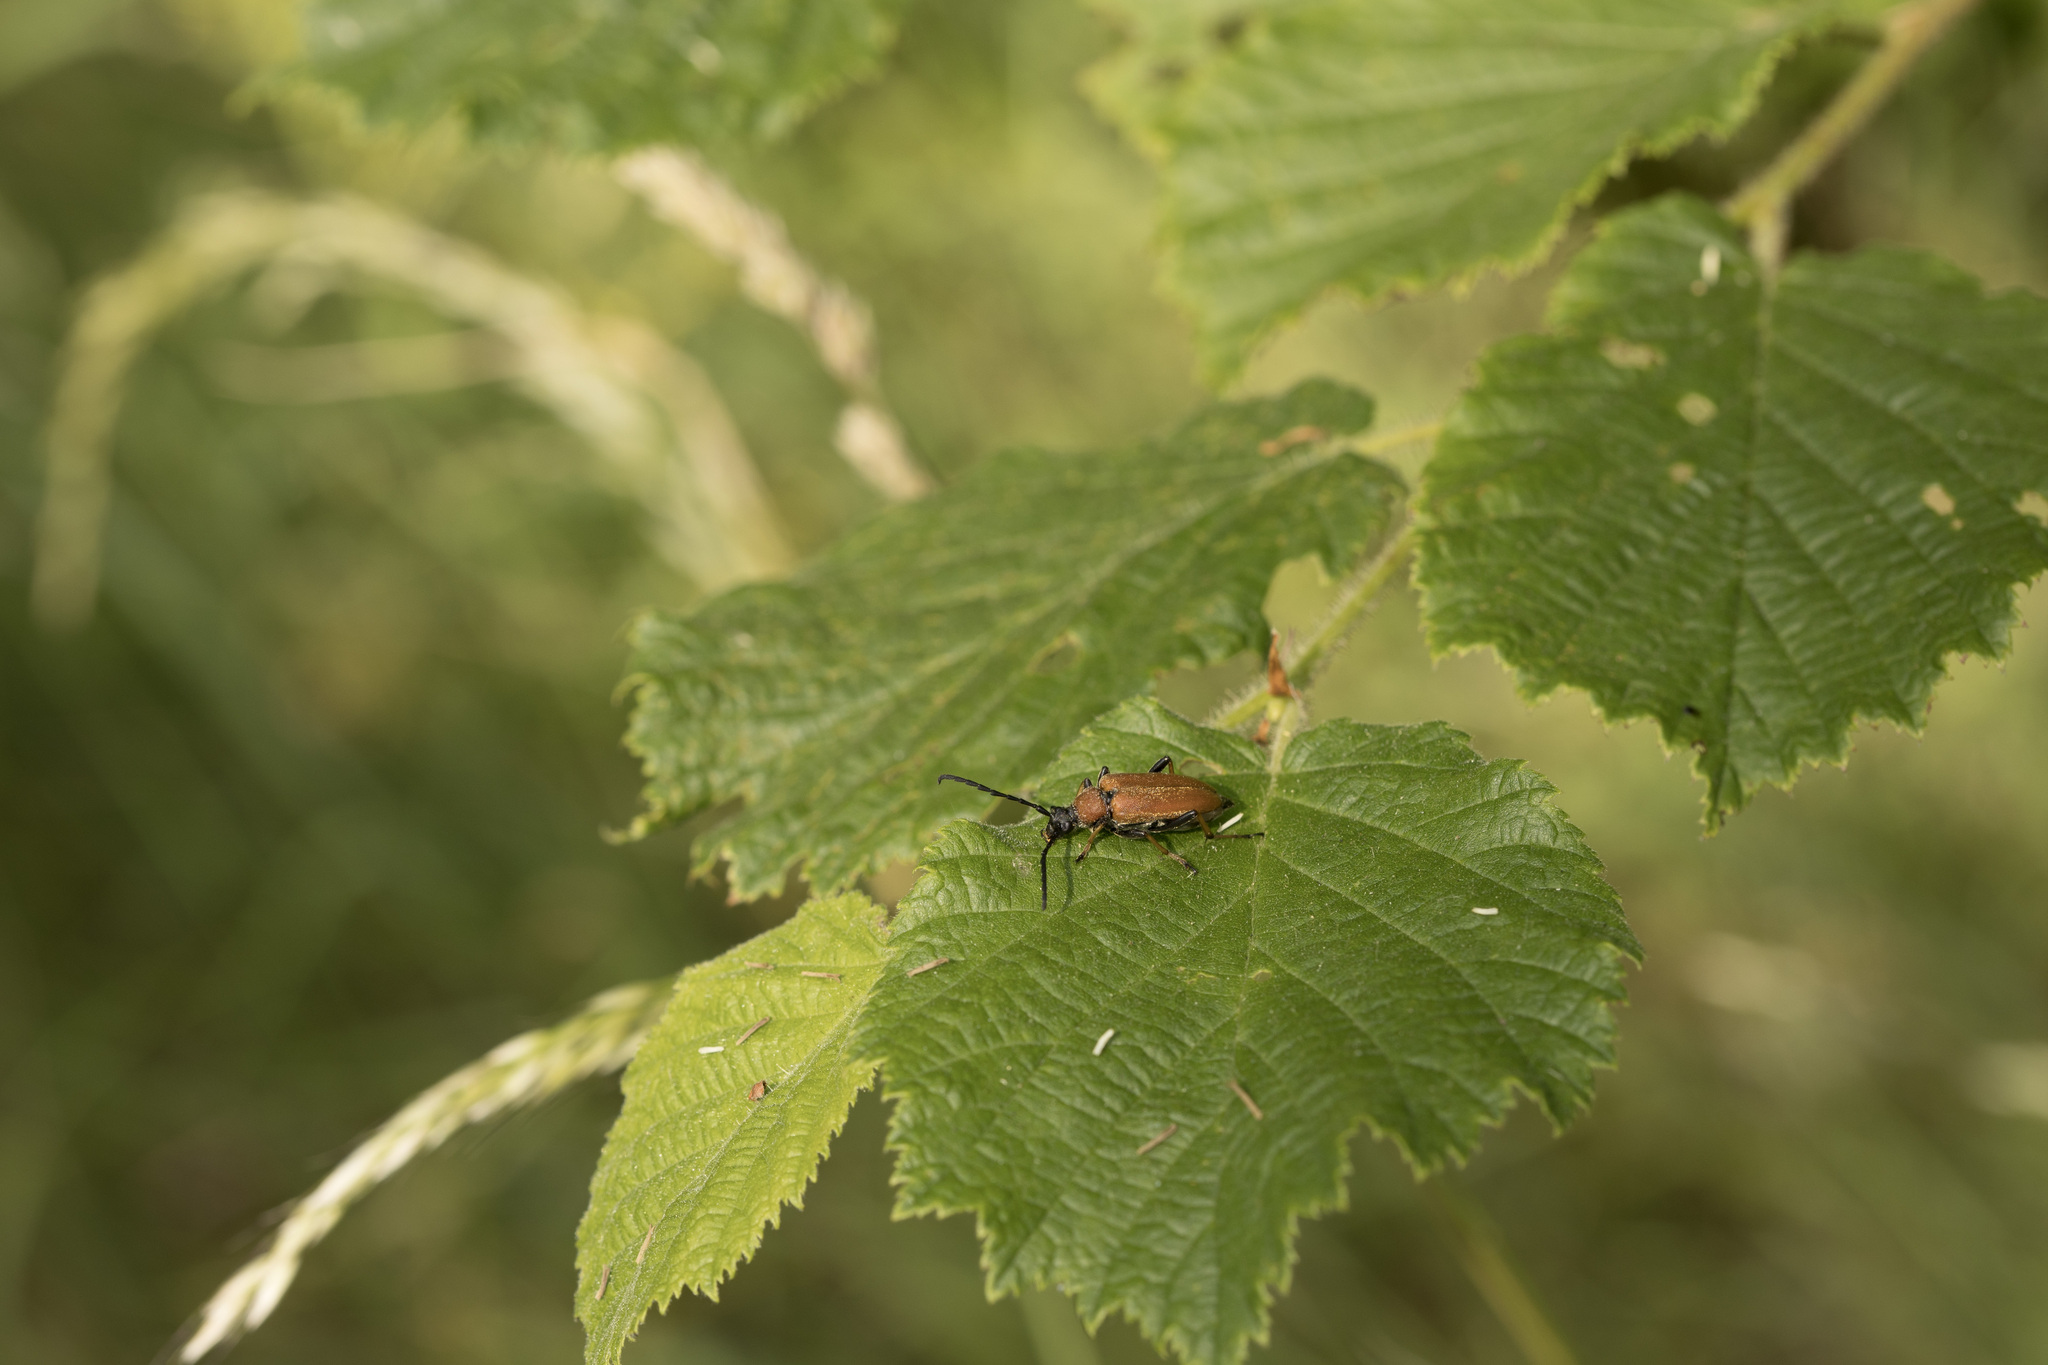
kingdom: Animalia
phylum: Arthropoda
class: Insecta
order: Coleoptera
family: Cerambycidae
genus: Stictoleptura
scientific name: Stictoleptura rubra
